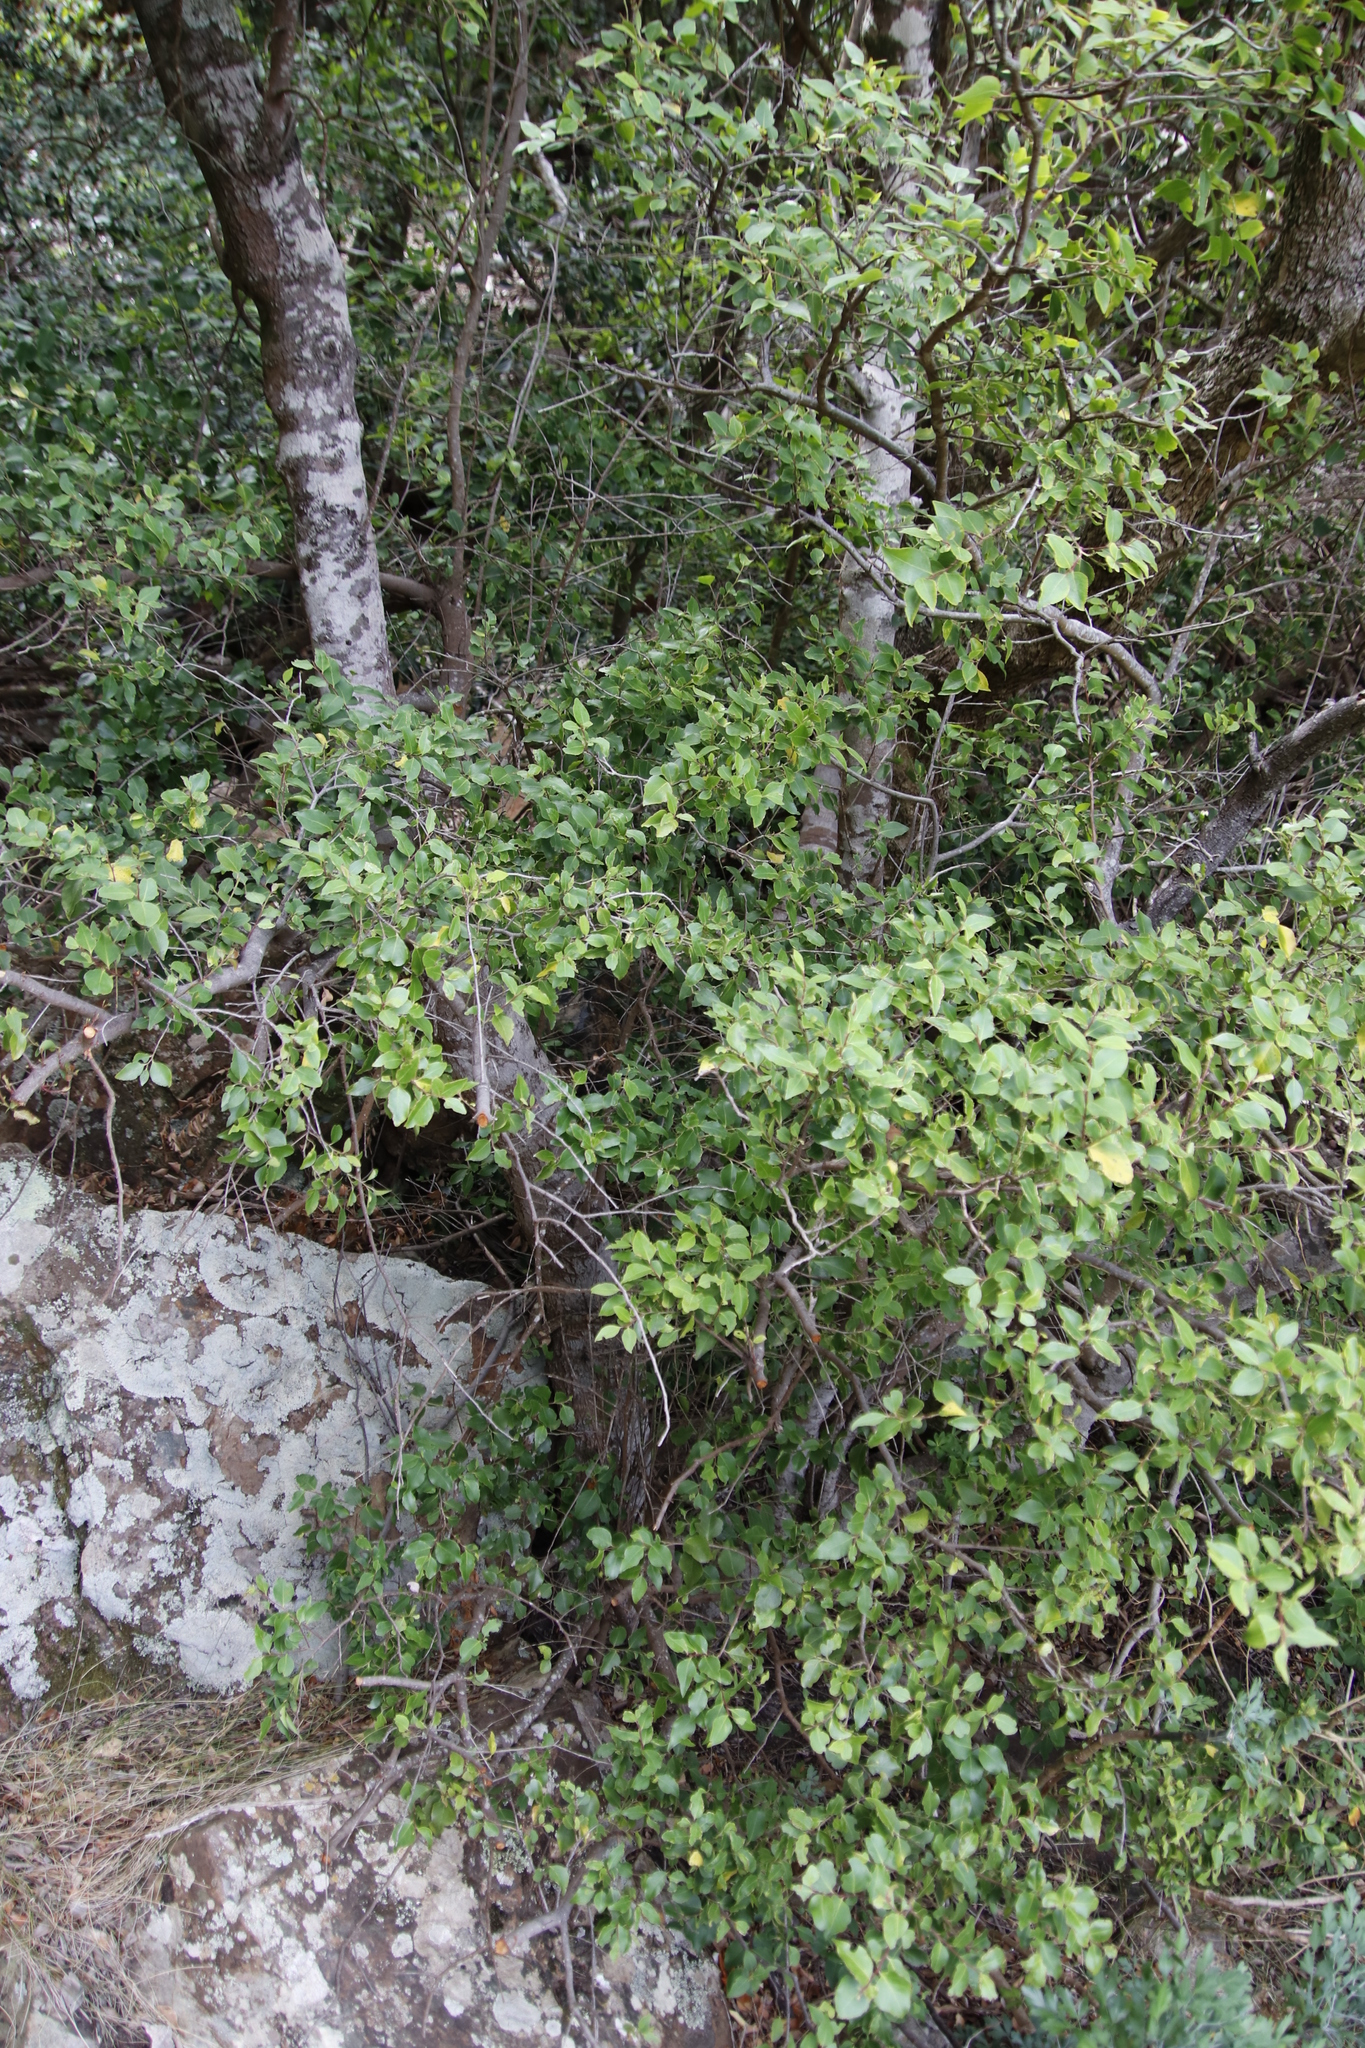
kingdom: Plantae
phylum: Tracheophyta
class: Magnoliopsida
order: Celastrales
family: Celastraceae
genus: Gymnosporia
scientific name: Gymnosporia acuminata
